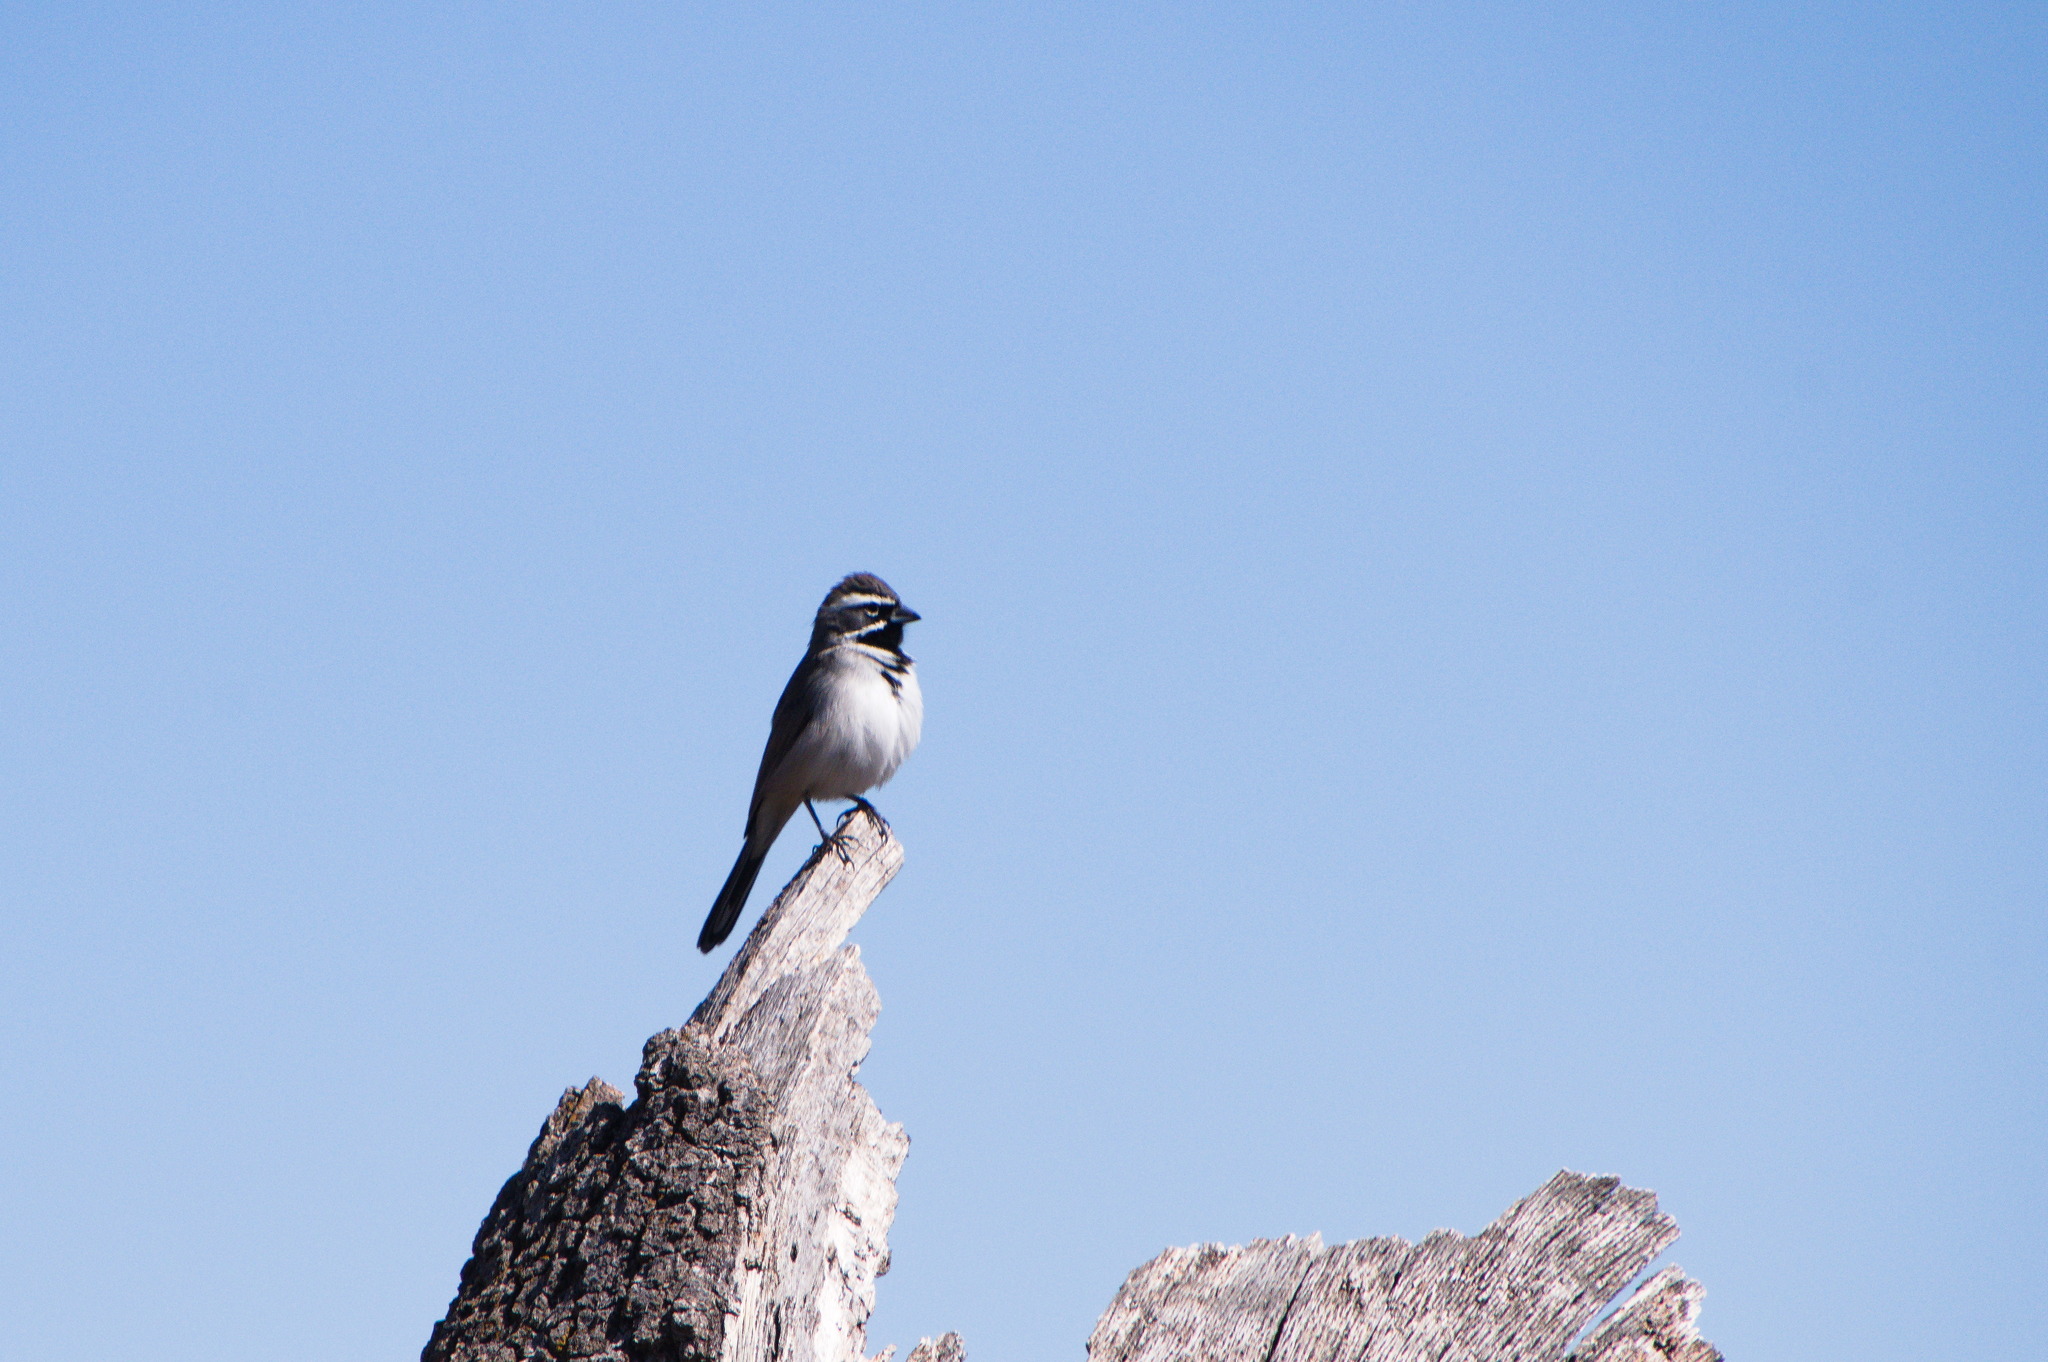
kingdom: Animalia
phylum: Chordata
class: Aves
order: Passeriformes
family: Passerellidae
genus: Amphispiza
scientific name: Amphispiza bilineata
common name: Black-throated sparrow
